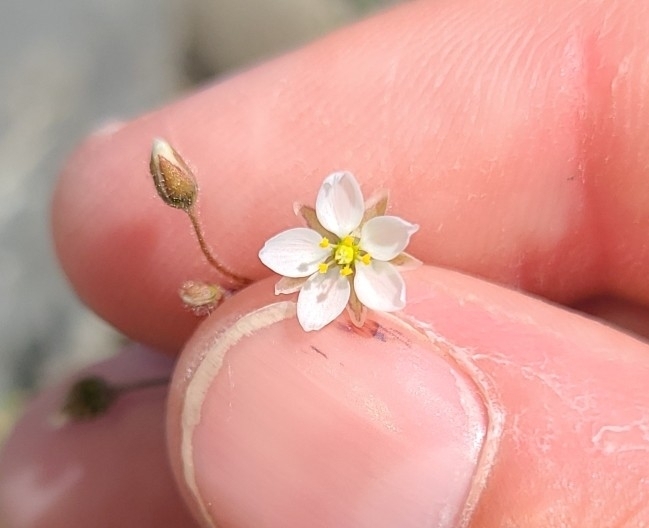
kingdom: Plantae
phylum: Tracheophyta
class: Magnoliopsida
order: Caryophyllales
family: Caryophyllaceae
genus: Spergula
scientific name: Spergula arvensis
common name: Corn spurrey
